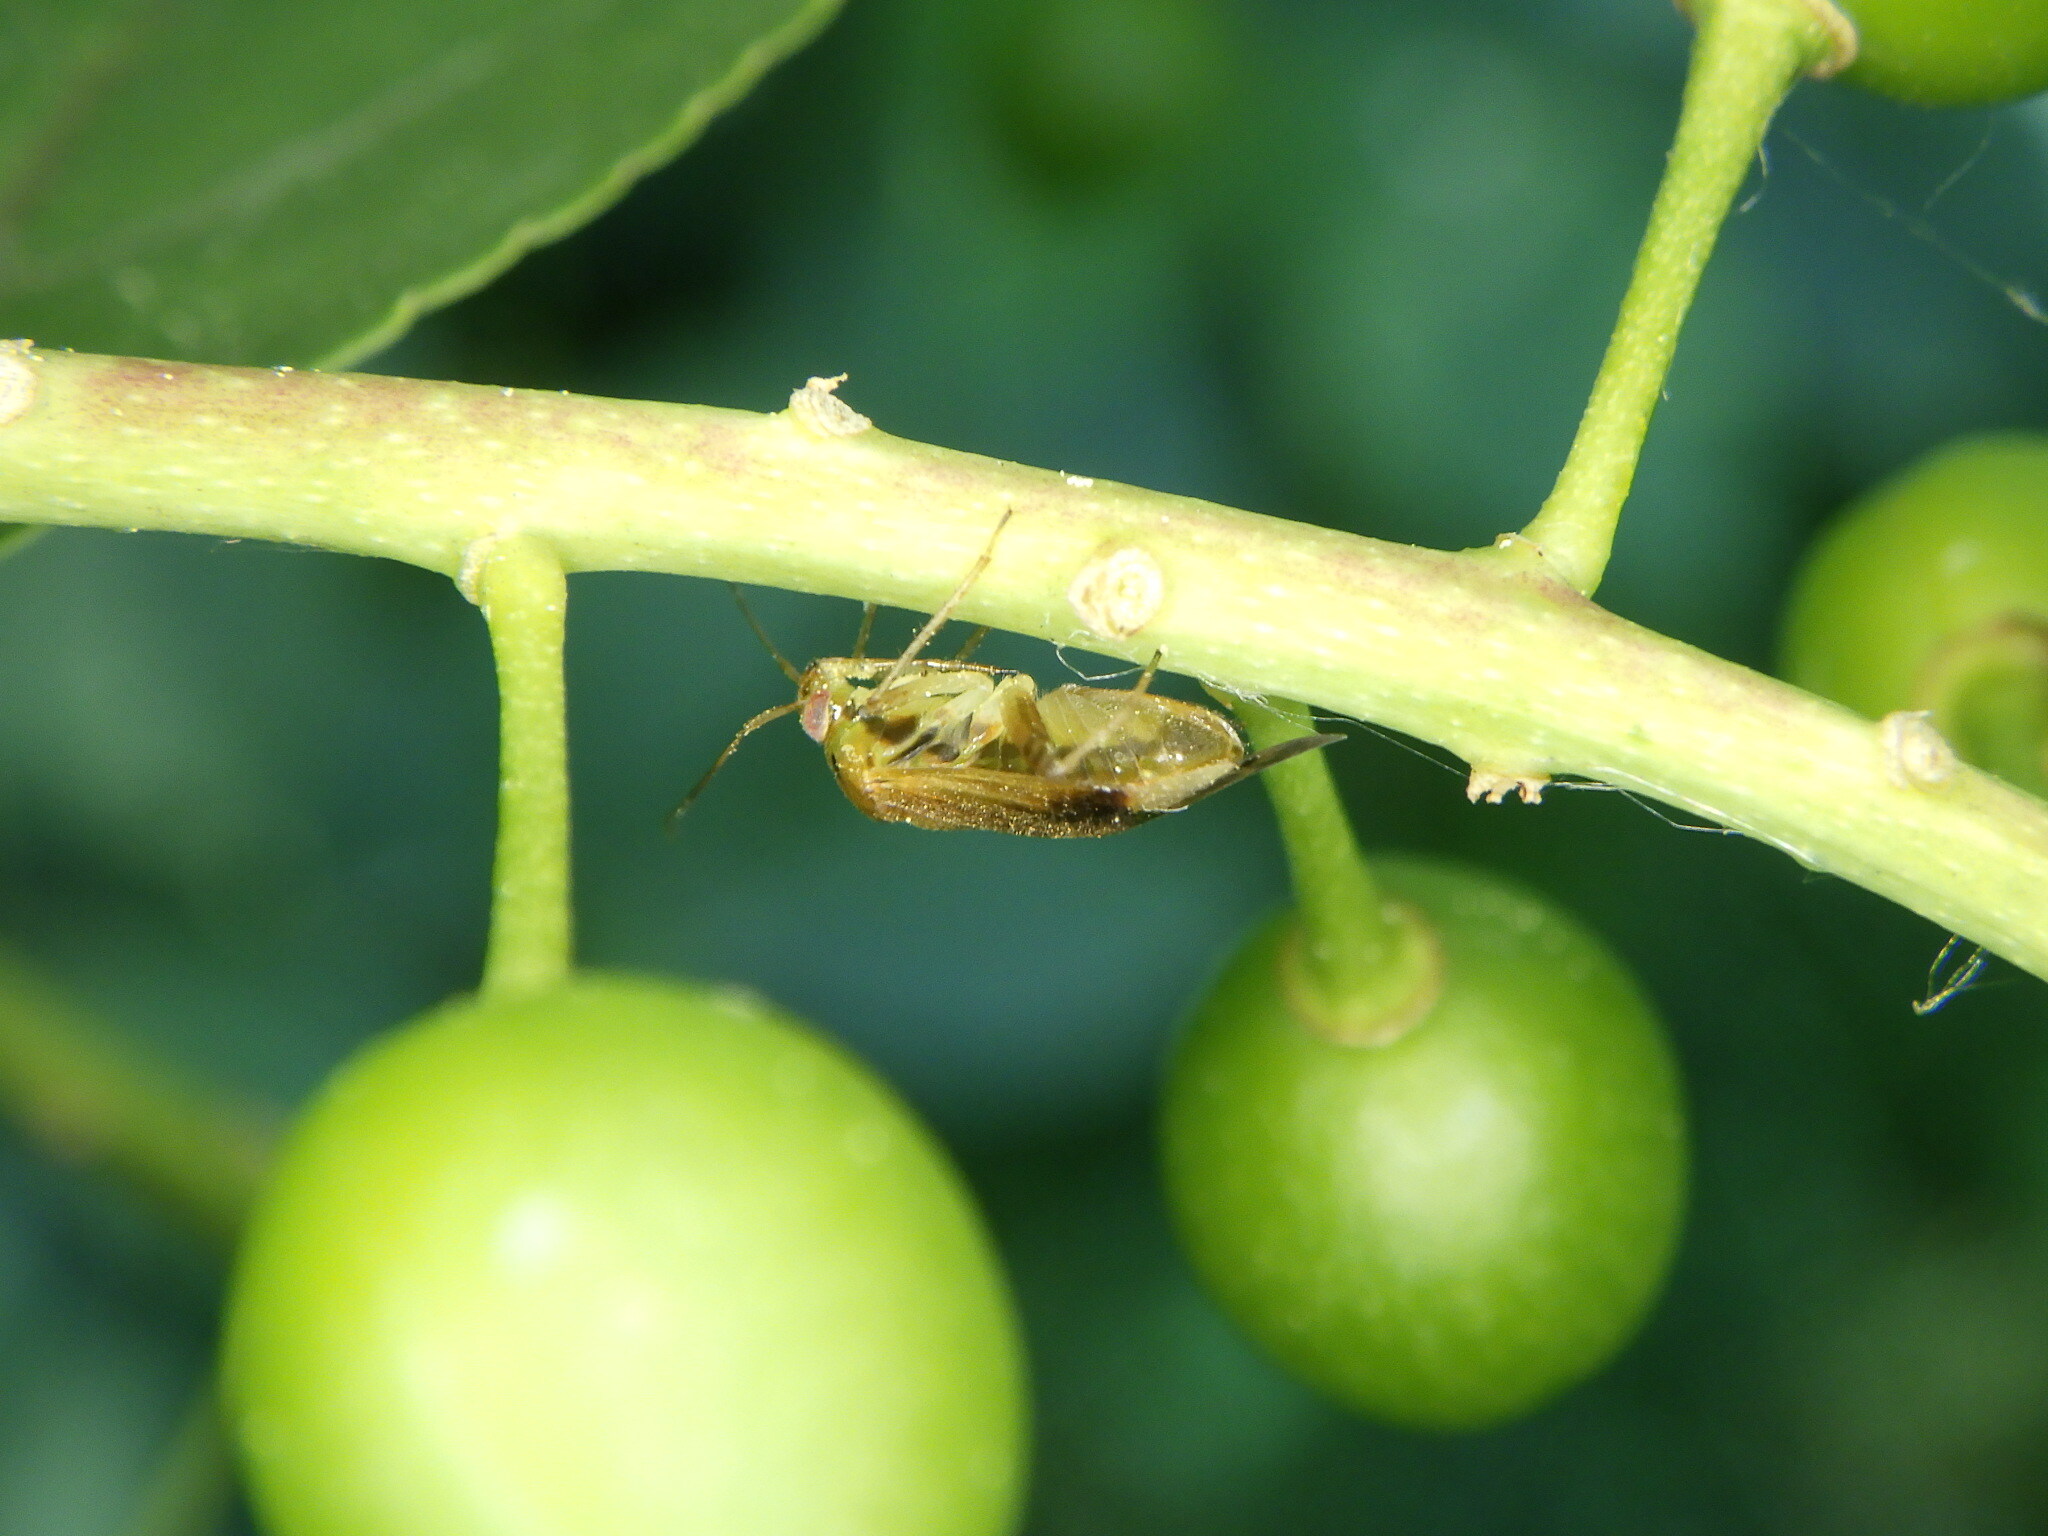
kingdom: Animalia
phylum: Arthropoda
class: Insecta
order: Hemiptera
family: Miridae
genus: Neolygus
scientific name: Neolygus
